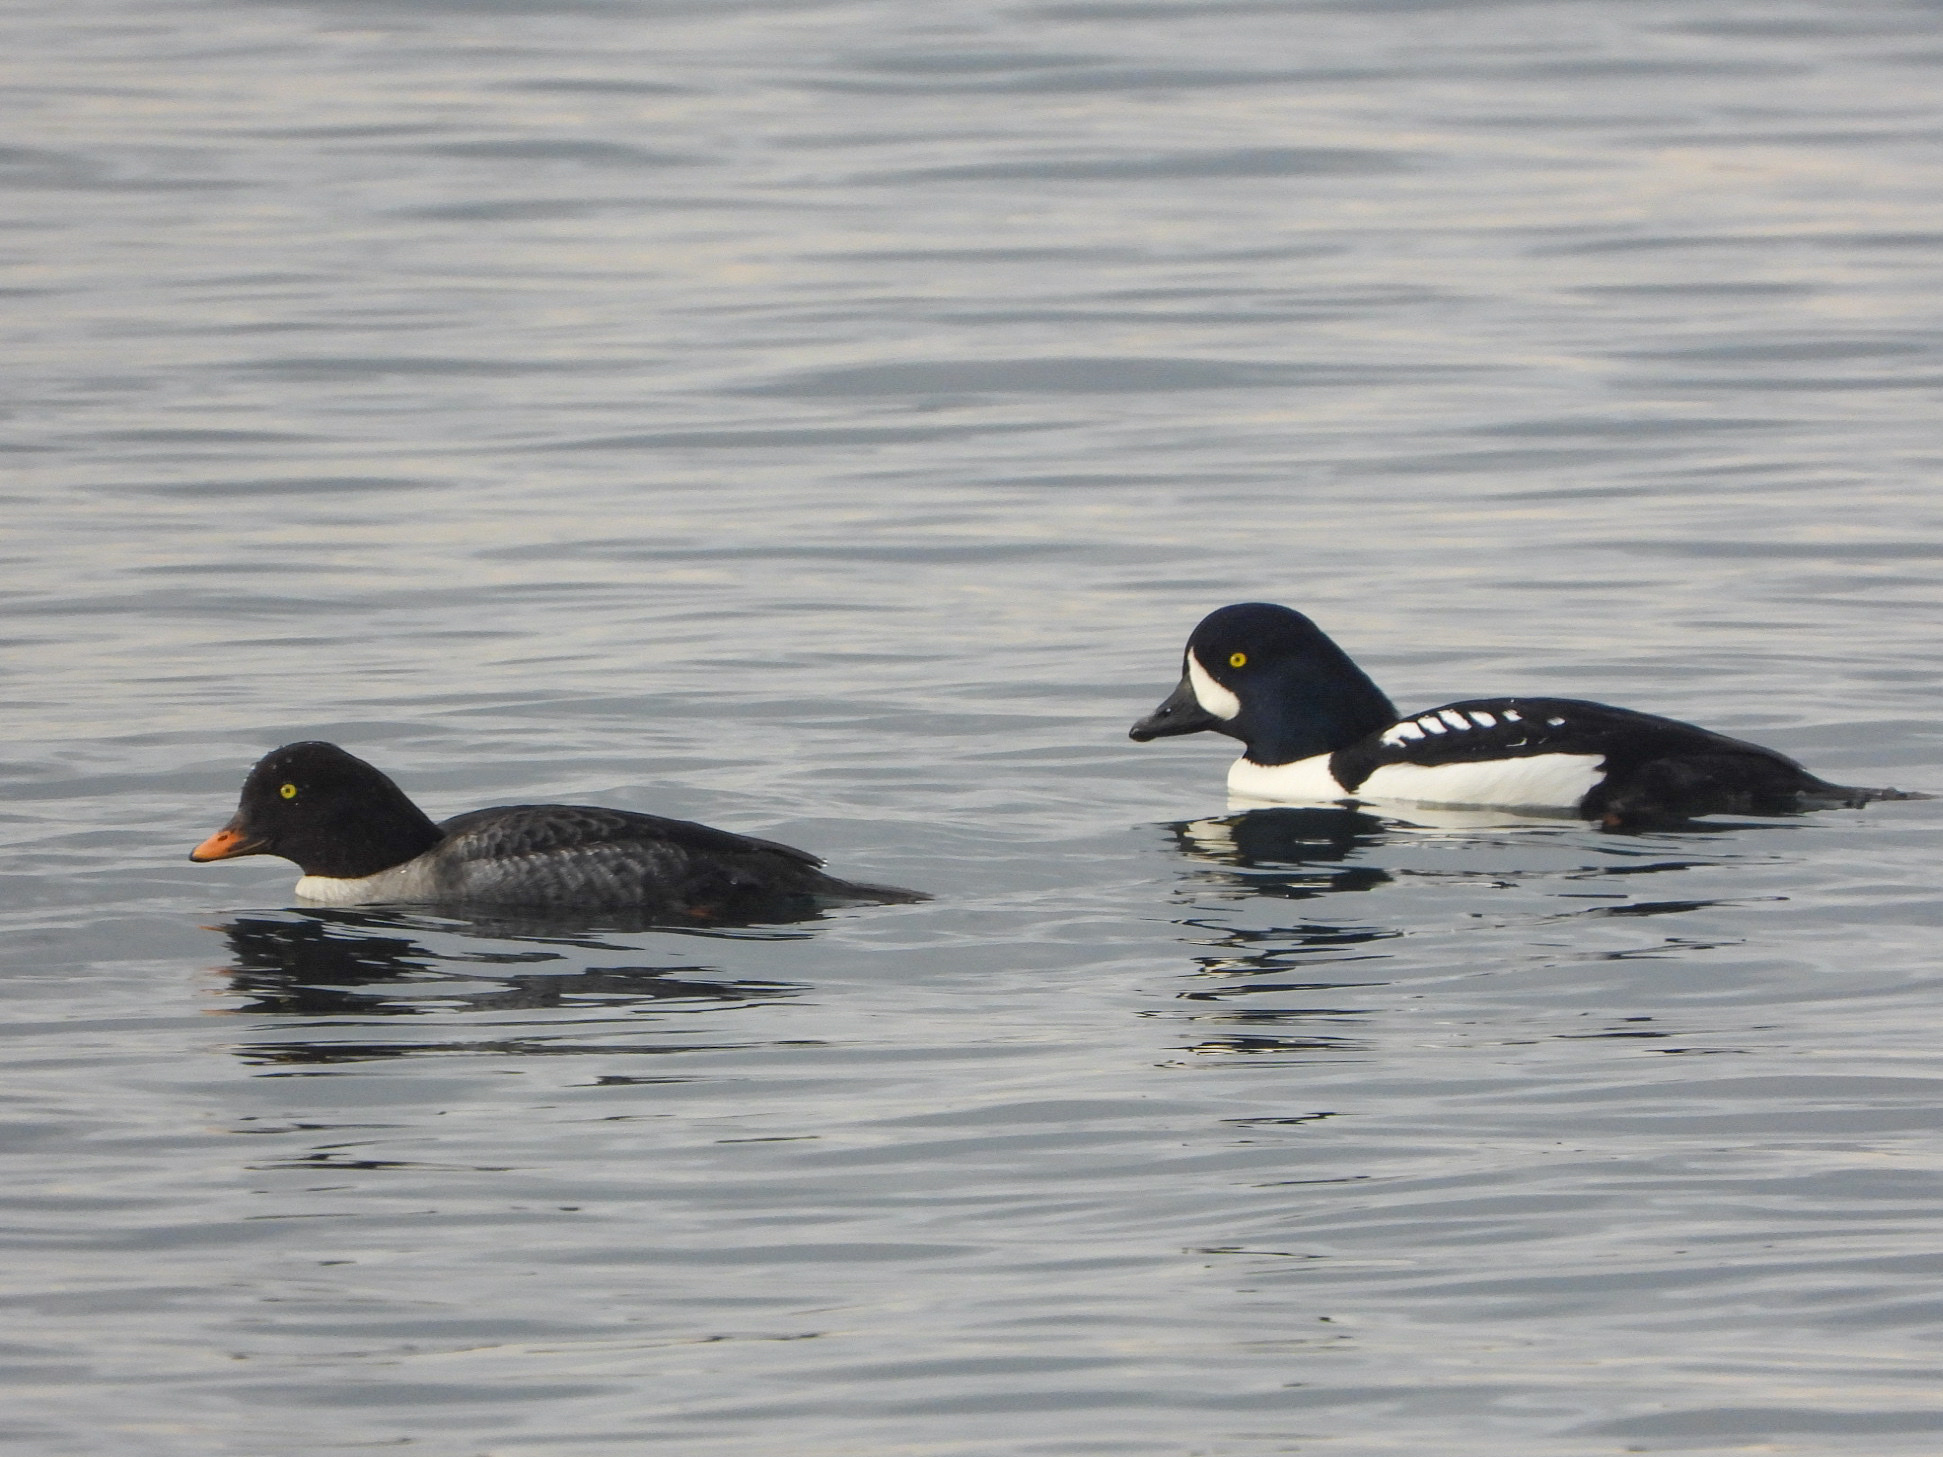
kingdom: Animalia
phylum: Chordata
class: Aves
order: Anseriformes
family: Anatidae
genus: Bucephala
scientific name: Bucephala islandica
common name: Barrow's goldeneye
